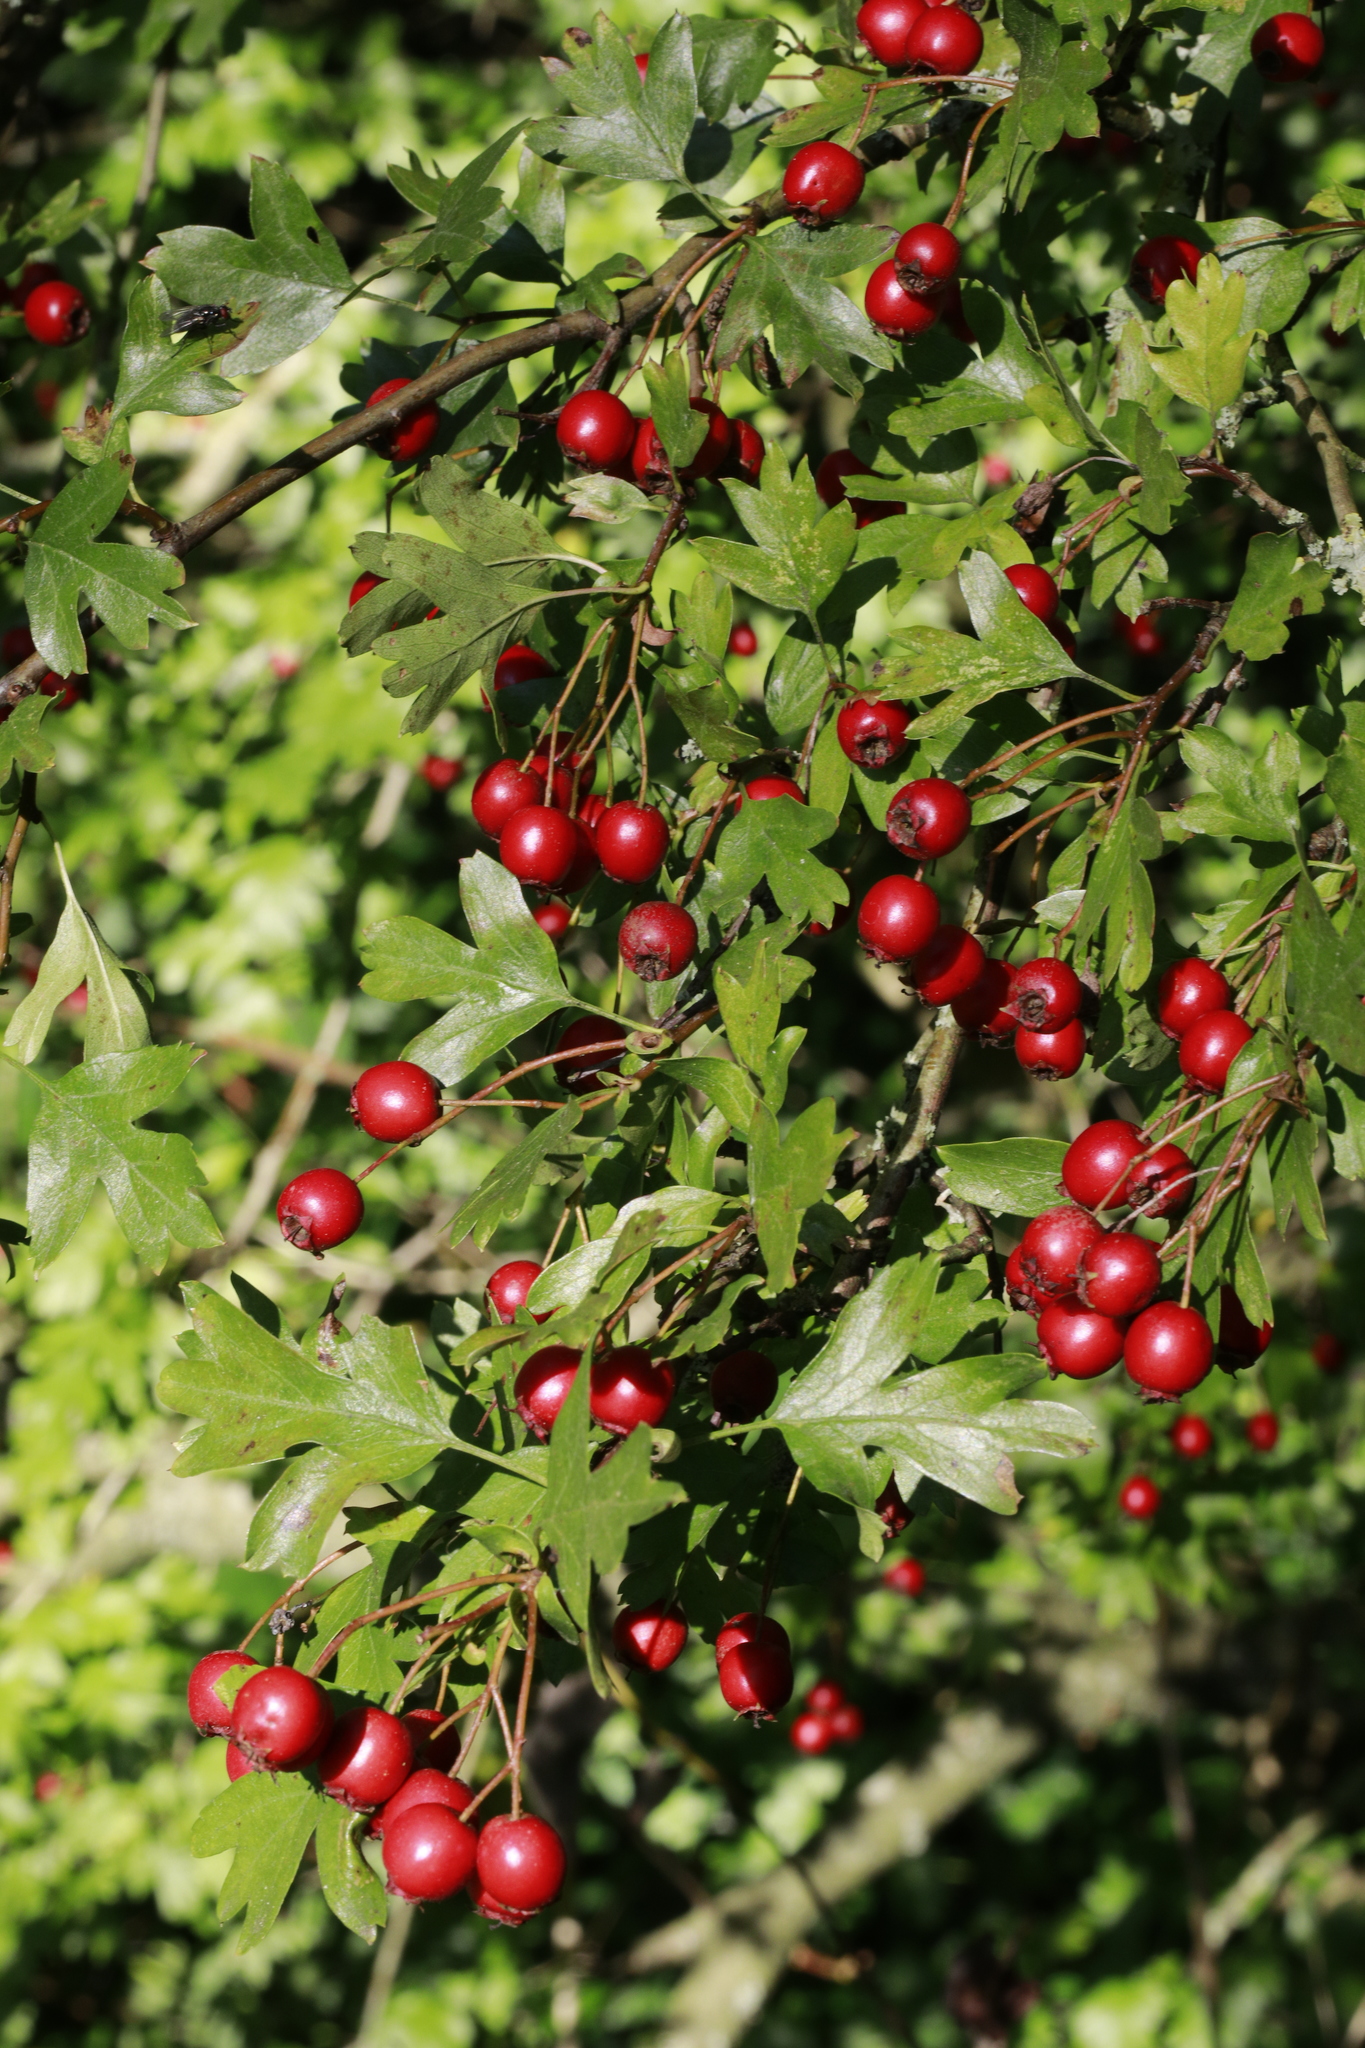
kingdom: Plantae
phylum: Tracheophyta
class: Magnoliopsida
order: Rosales
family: Rosaceae
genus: Crataegus
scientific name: Crataegus monogyna
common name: Hawthorn
